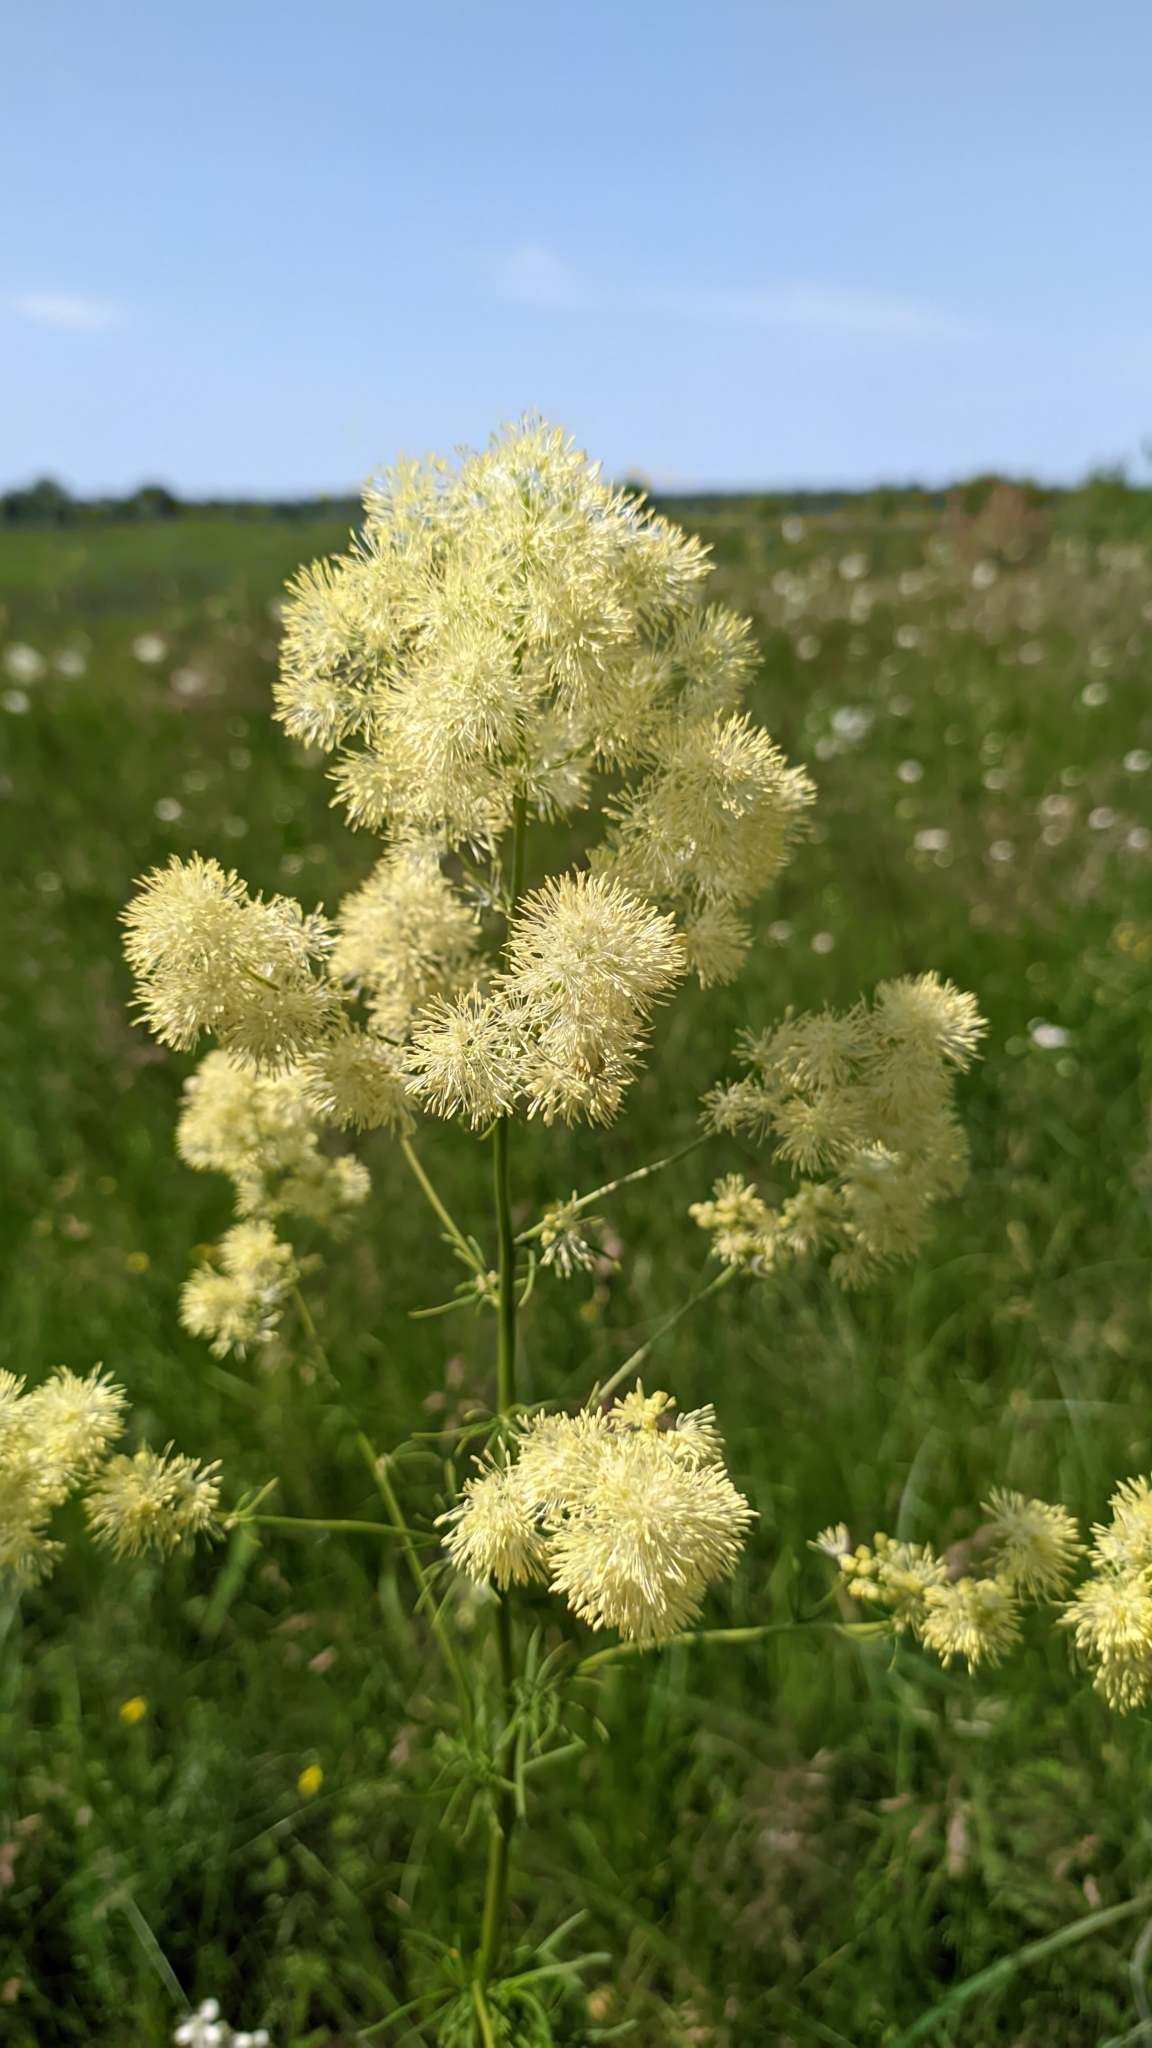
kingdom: Plantae
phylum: Tracheophyta
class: Magnoliopsida
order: Ranunculales
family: Ranunculaceae
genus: Thalictrum
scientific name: Thalictrum lucidum
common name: Shining meadow-rue
